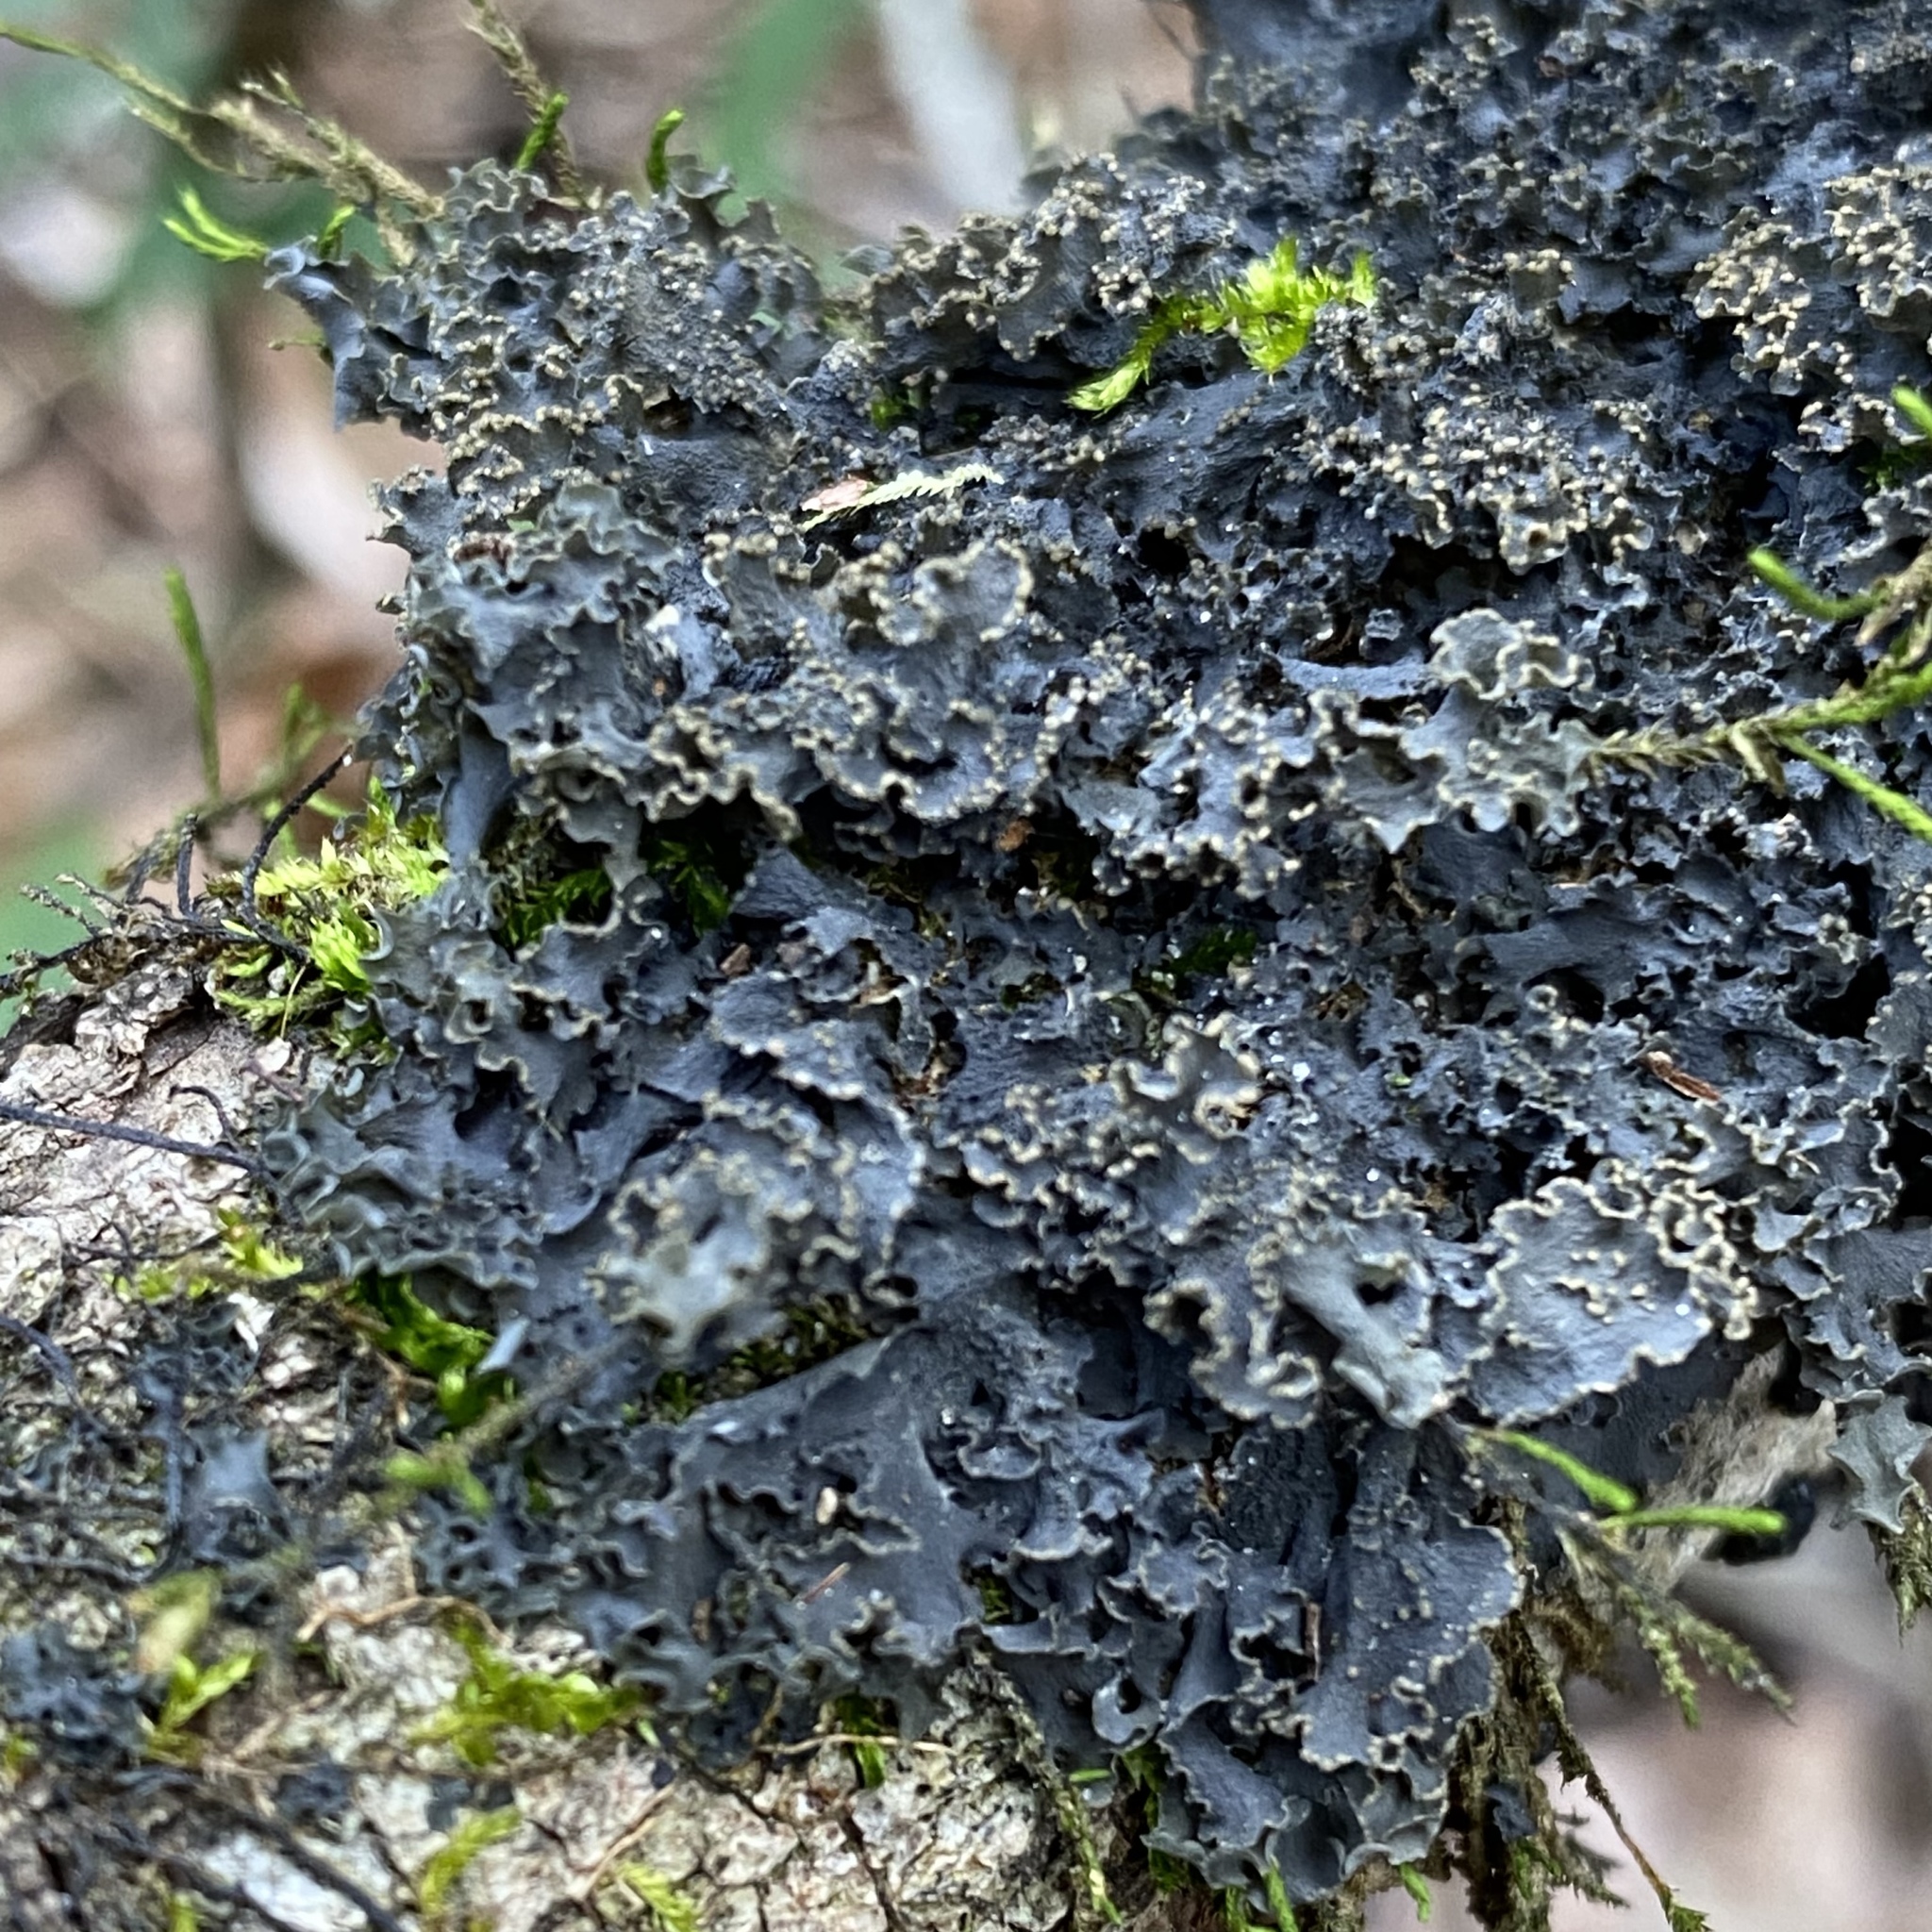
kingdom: Fungi
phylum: Ascomycota
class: Lecanoromycetes
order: Peltigerales
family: Collemataceae
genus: Leptogium
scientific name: Leptogium marginellum
